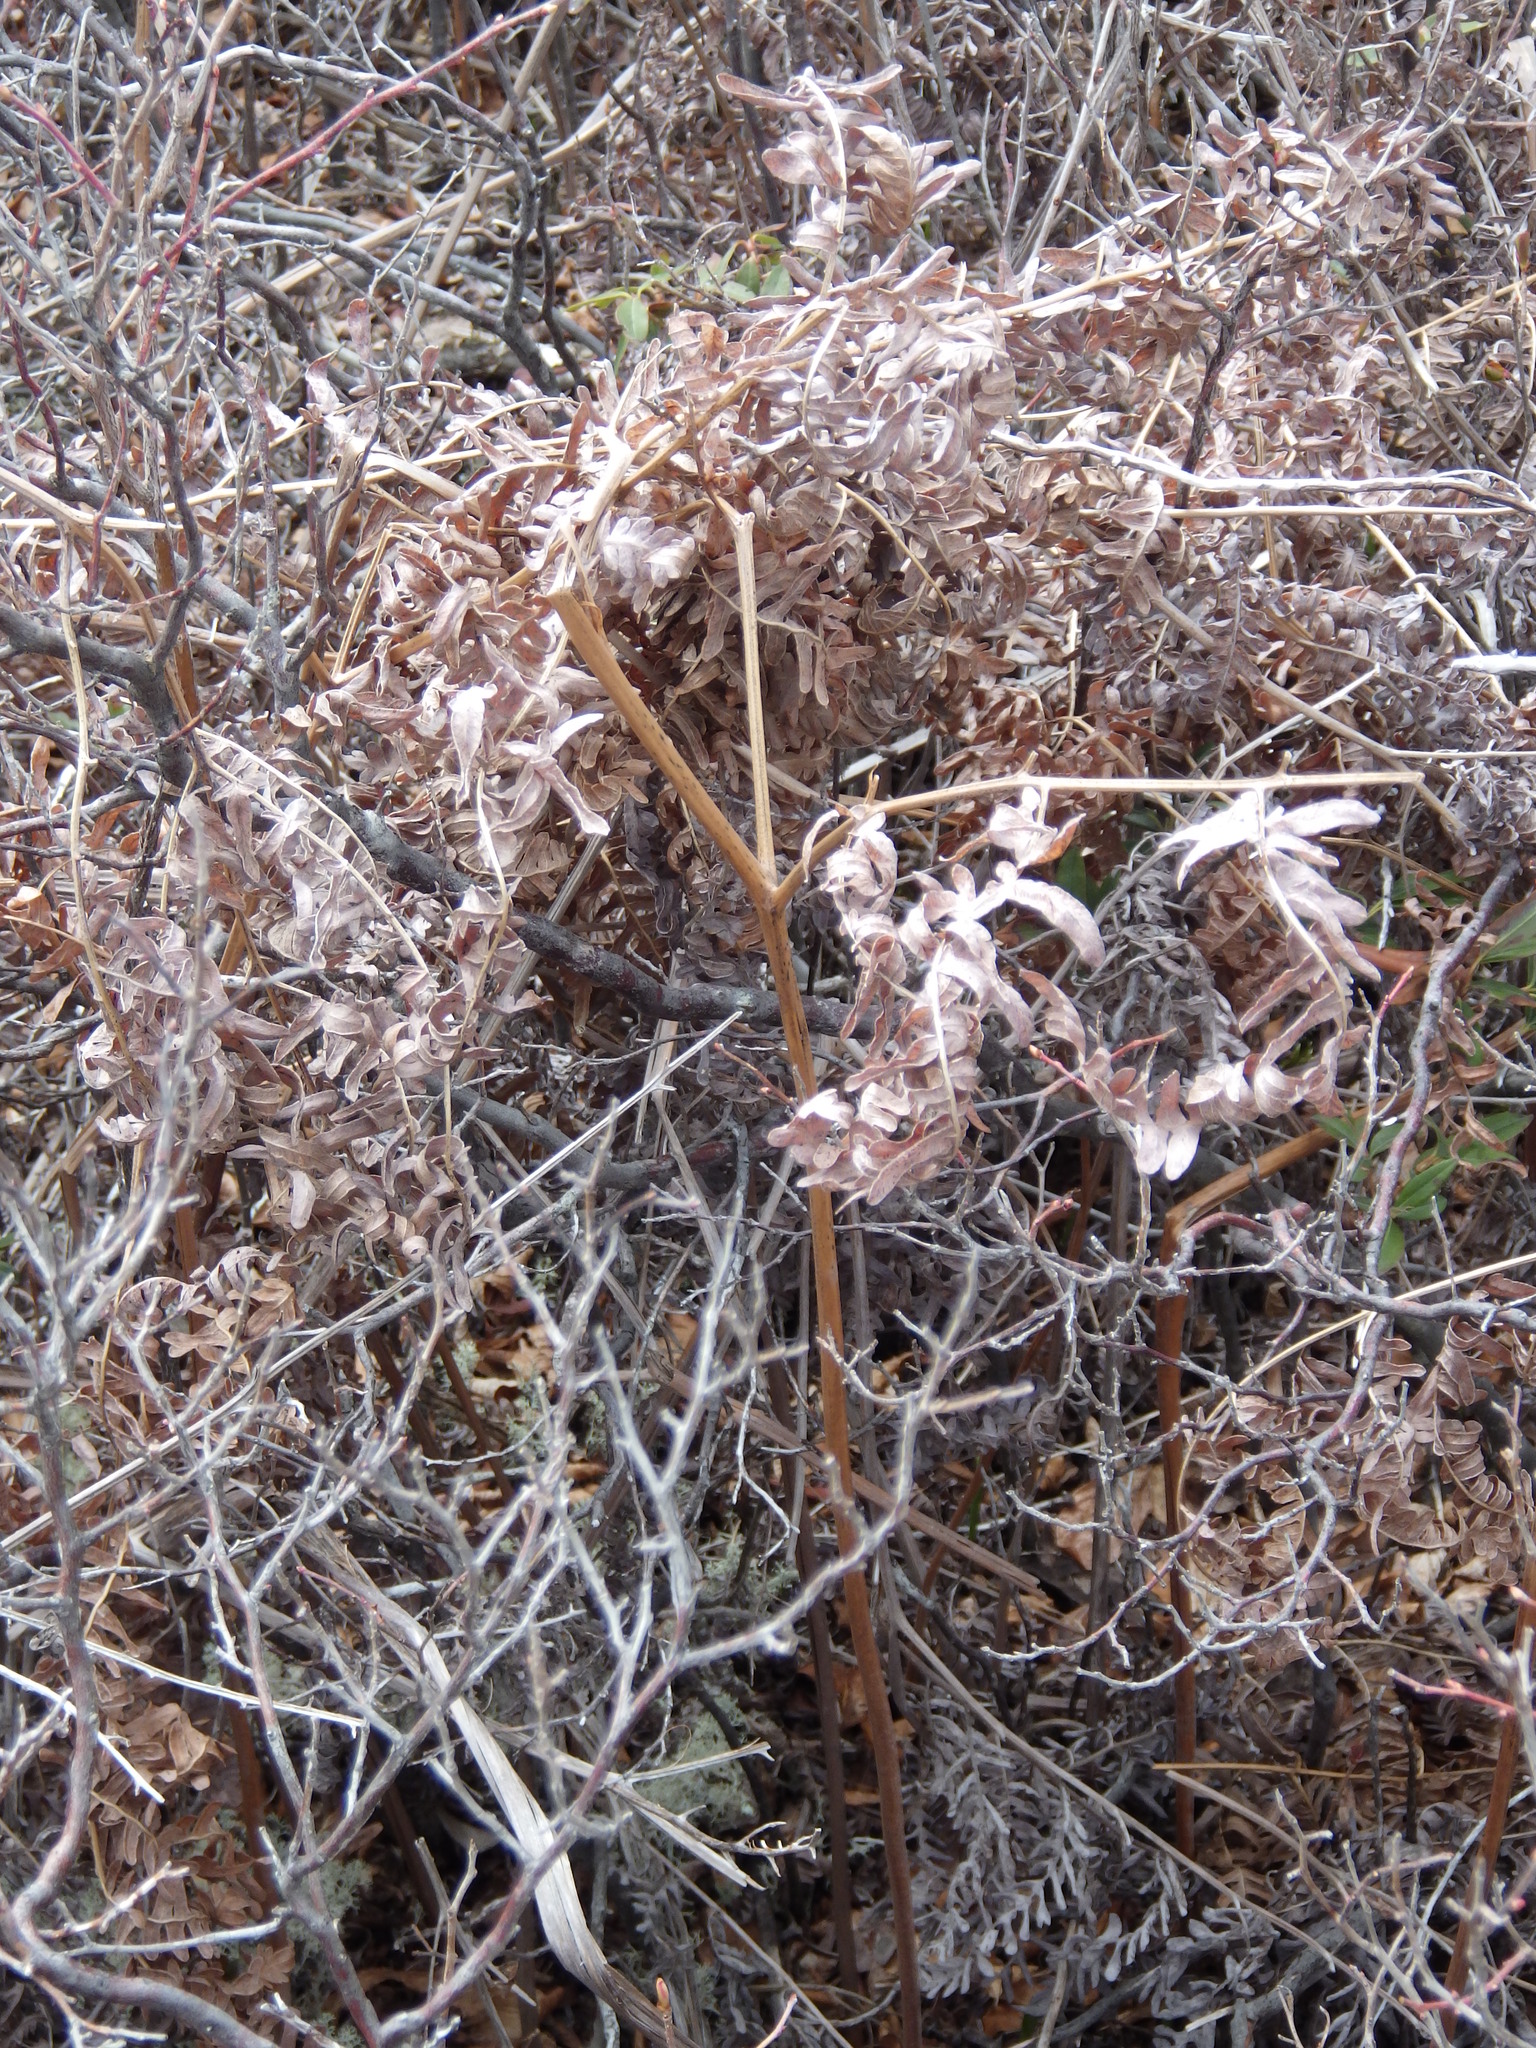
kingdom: Plantae
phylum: Tracheophyta
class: Polypodiopsida
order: Polypodiales
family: Dennstaedtiaceae
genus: Pteridium
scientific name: Pteridium aquilinum
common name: Bracken
